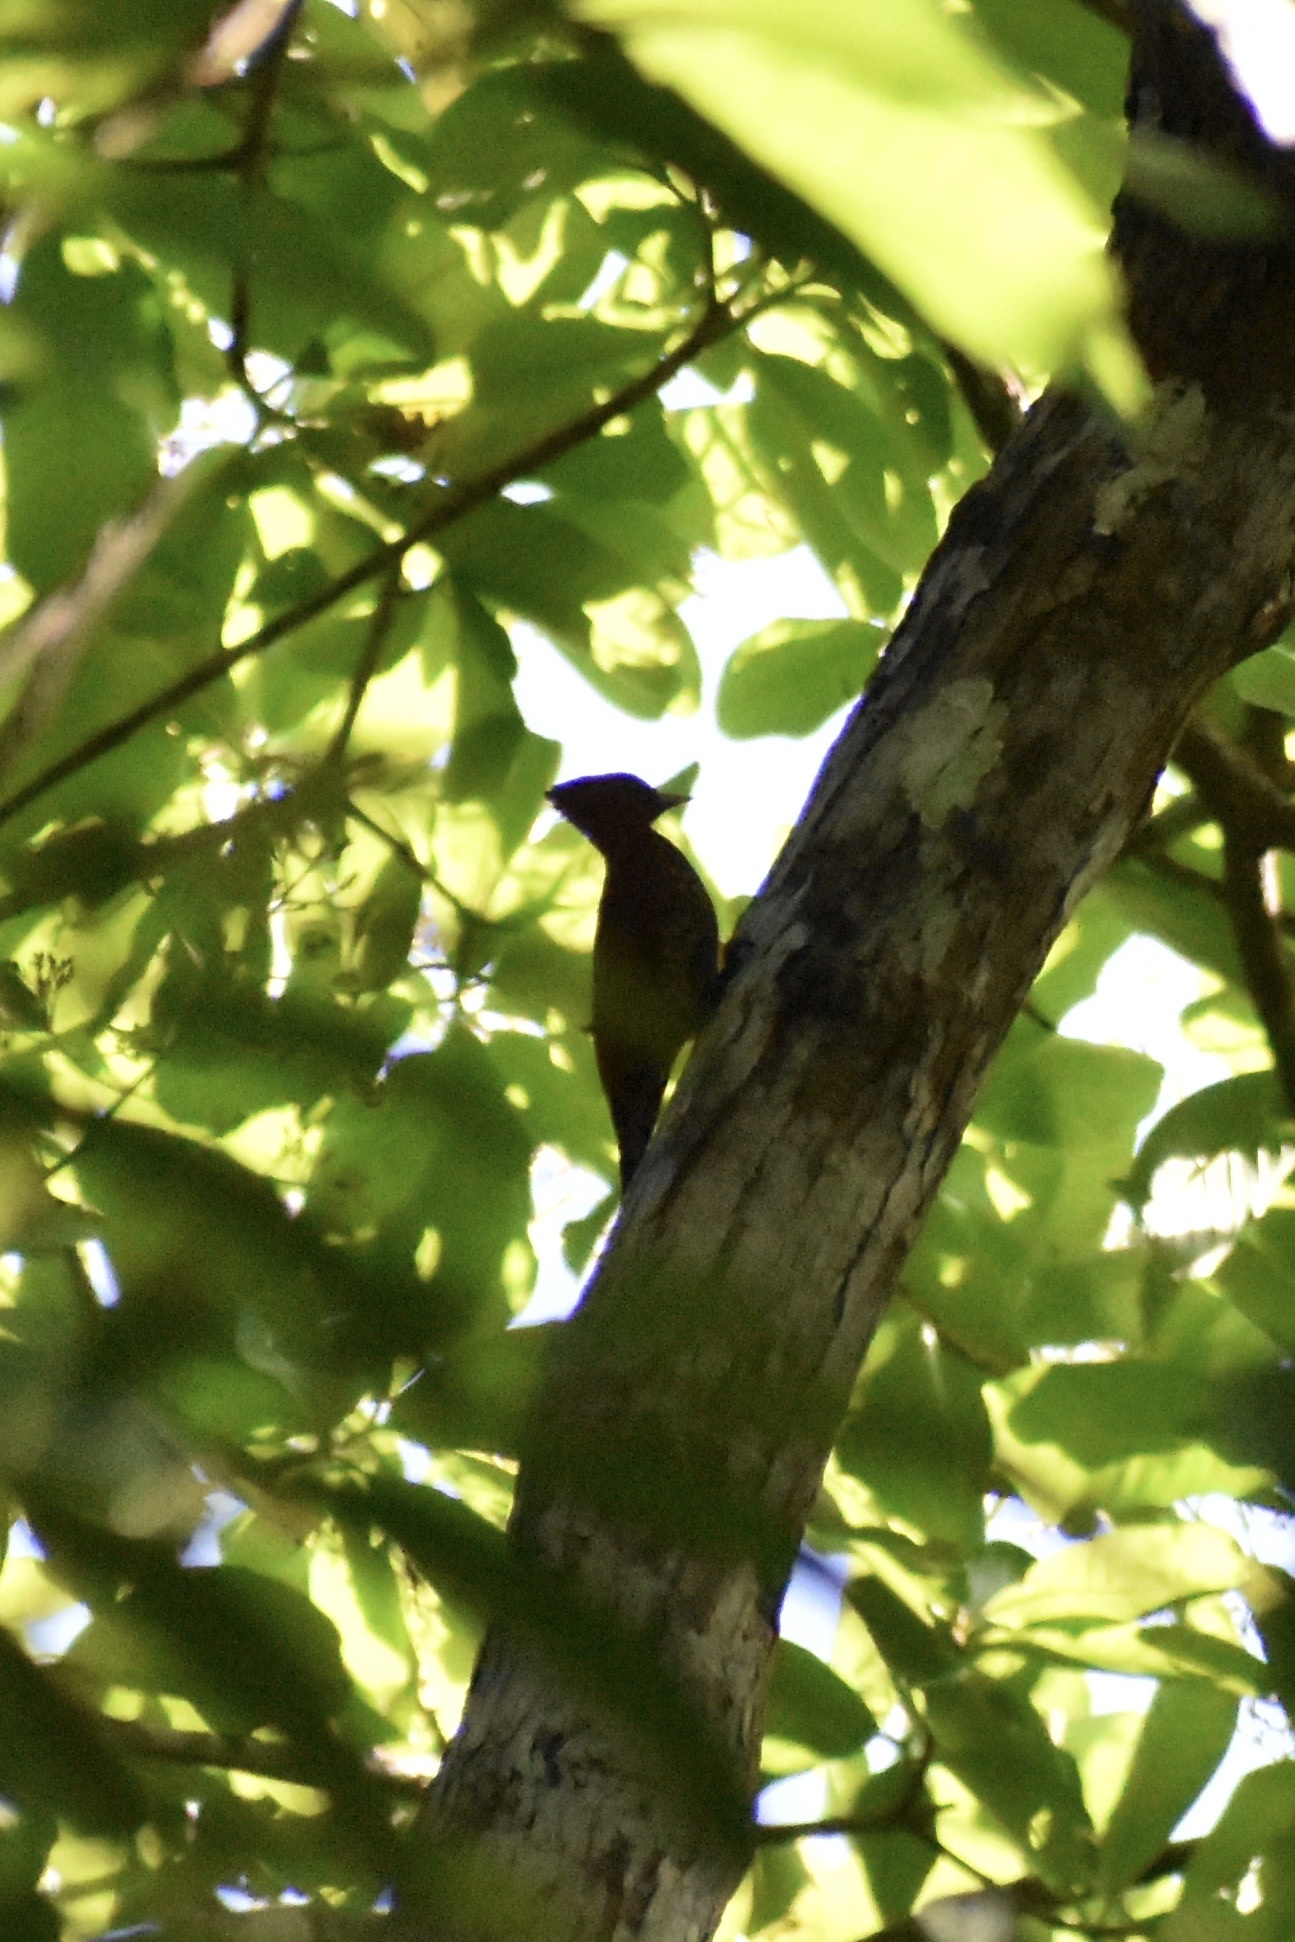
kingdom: Animalia
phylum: Chordata
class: Aves
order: Piciformes
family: Picidae
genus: Celeus
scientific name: Celeus loricatus
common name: Cinnamon woodpecker
